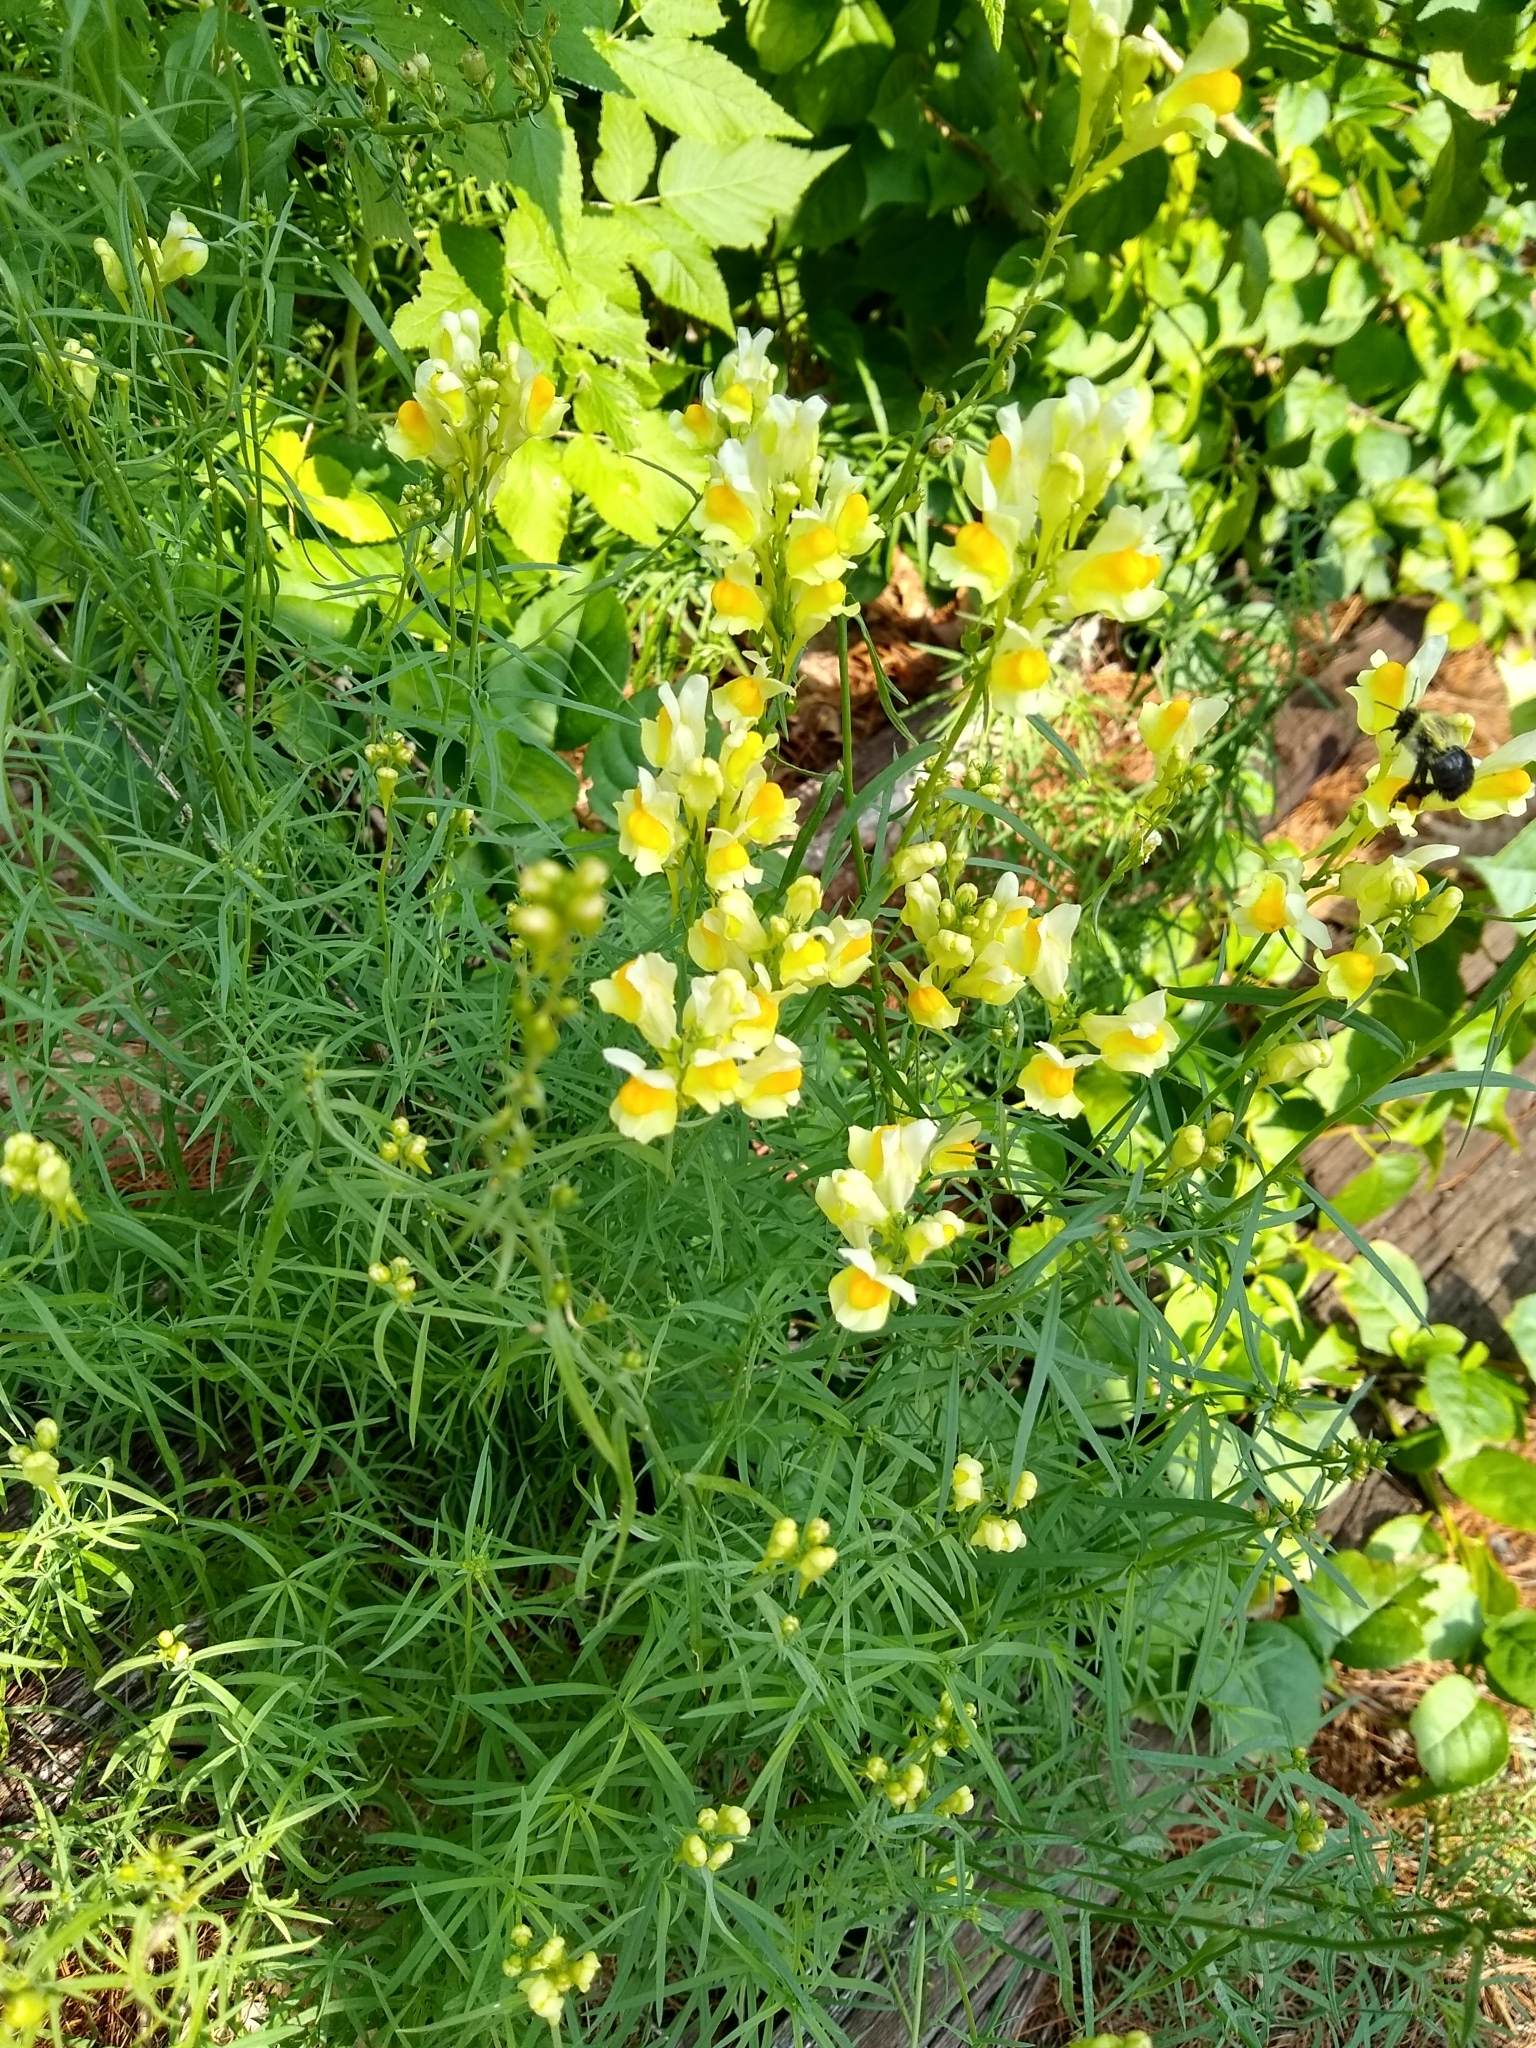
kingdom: Plantae
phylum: Tracheophyta
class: Magnoliopsida
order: Lamiales
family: Plantaginaceae
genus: Linaria
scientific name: Linaria vulgaris
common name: Butter and eggs
